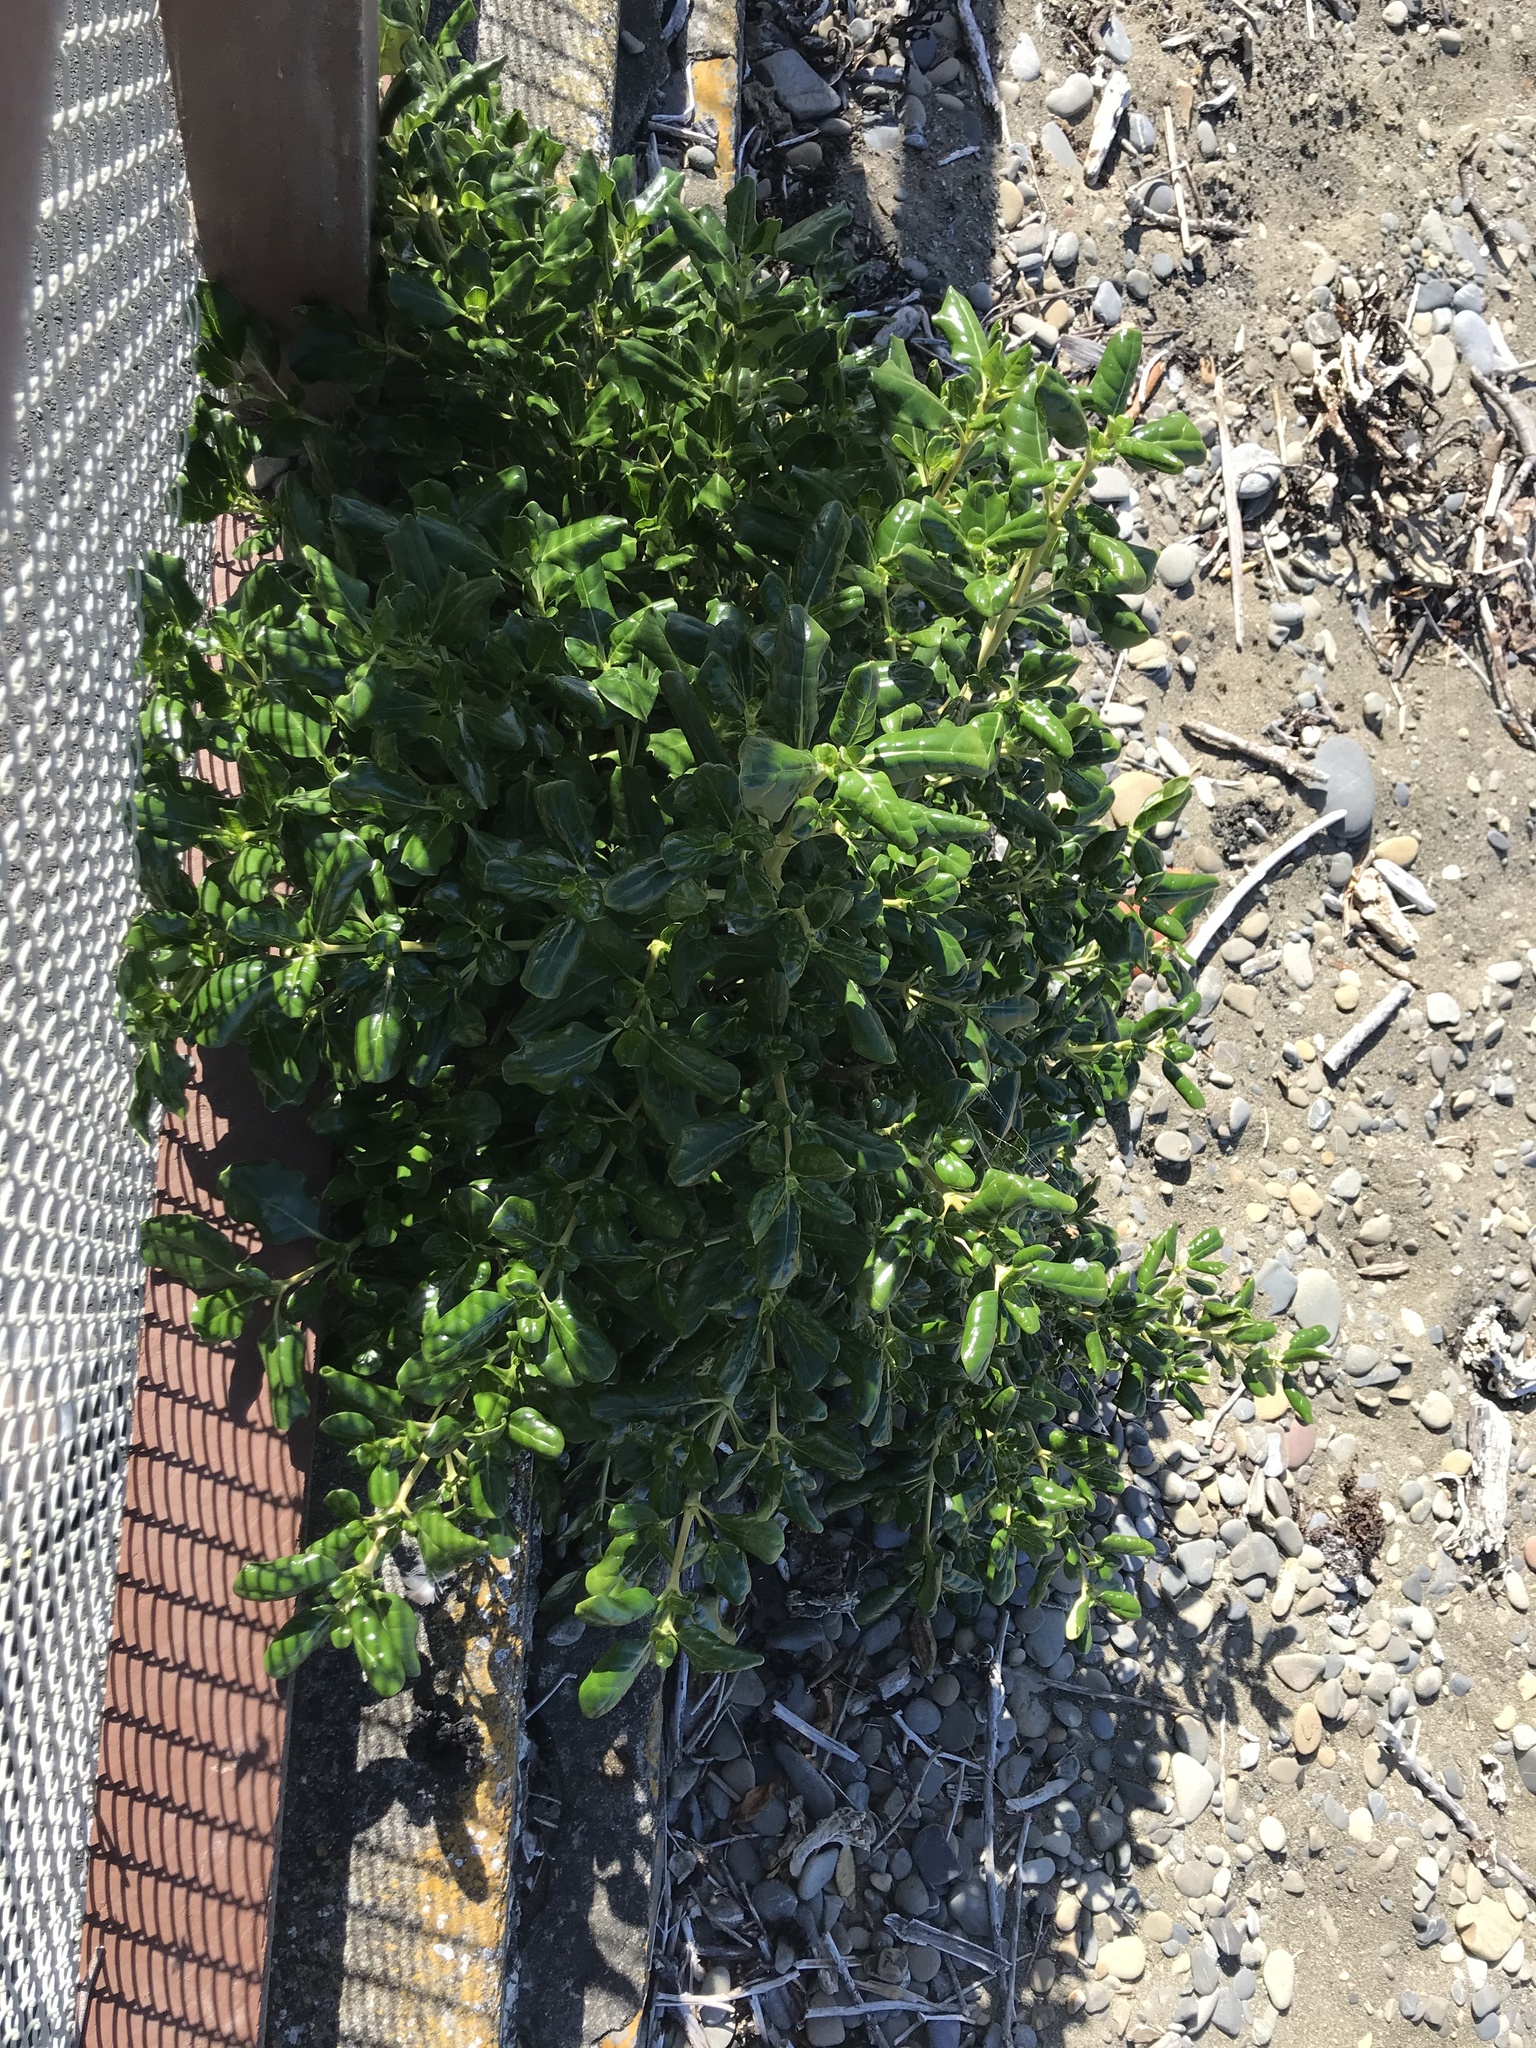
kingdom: Plantae
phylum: Tracheophyta
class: Magnoliopsida
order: Gentianales
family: Rubiaceae
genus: Coprosma
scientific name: Coprosma repens
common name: Tree bedstraw
